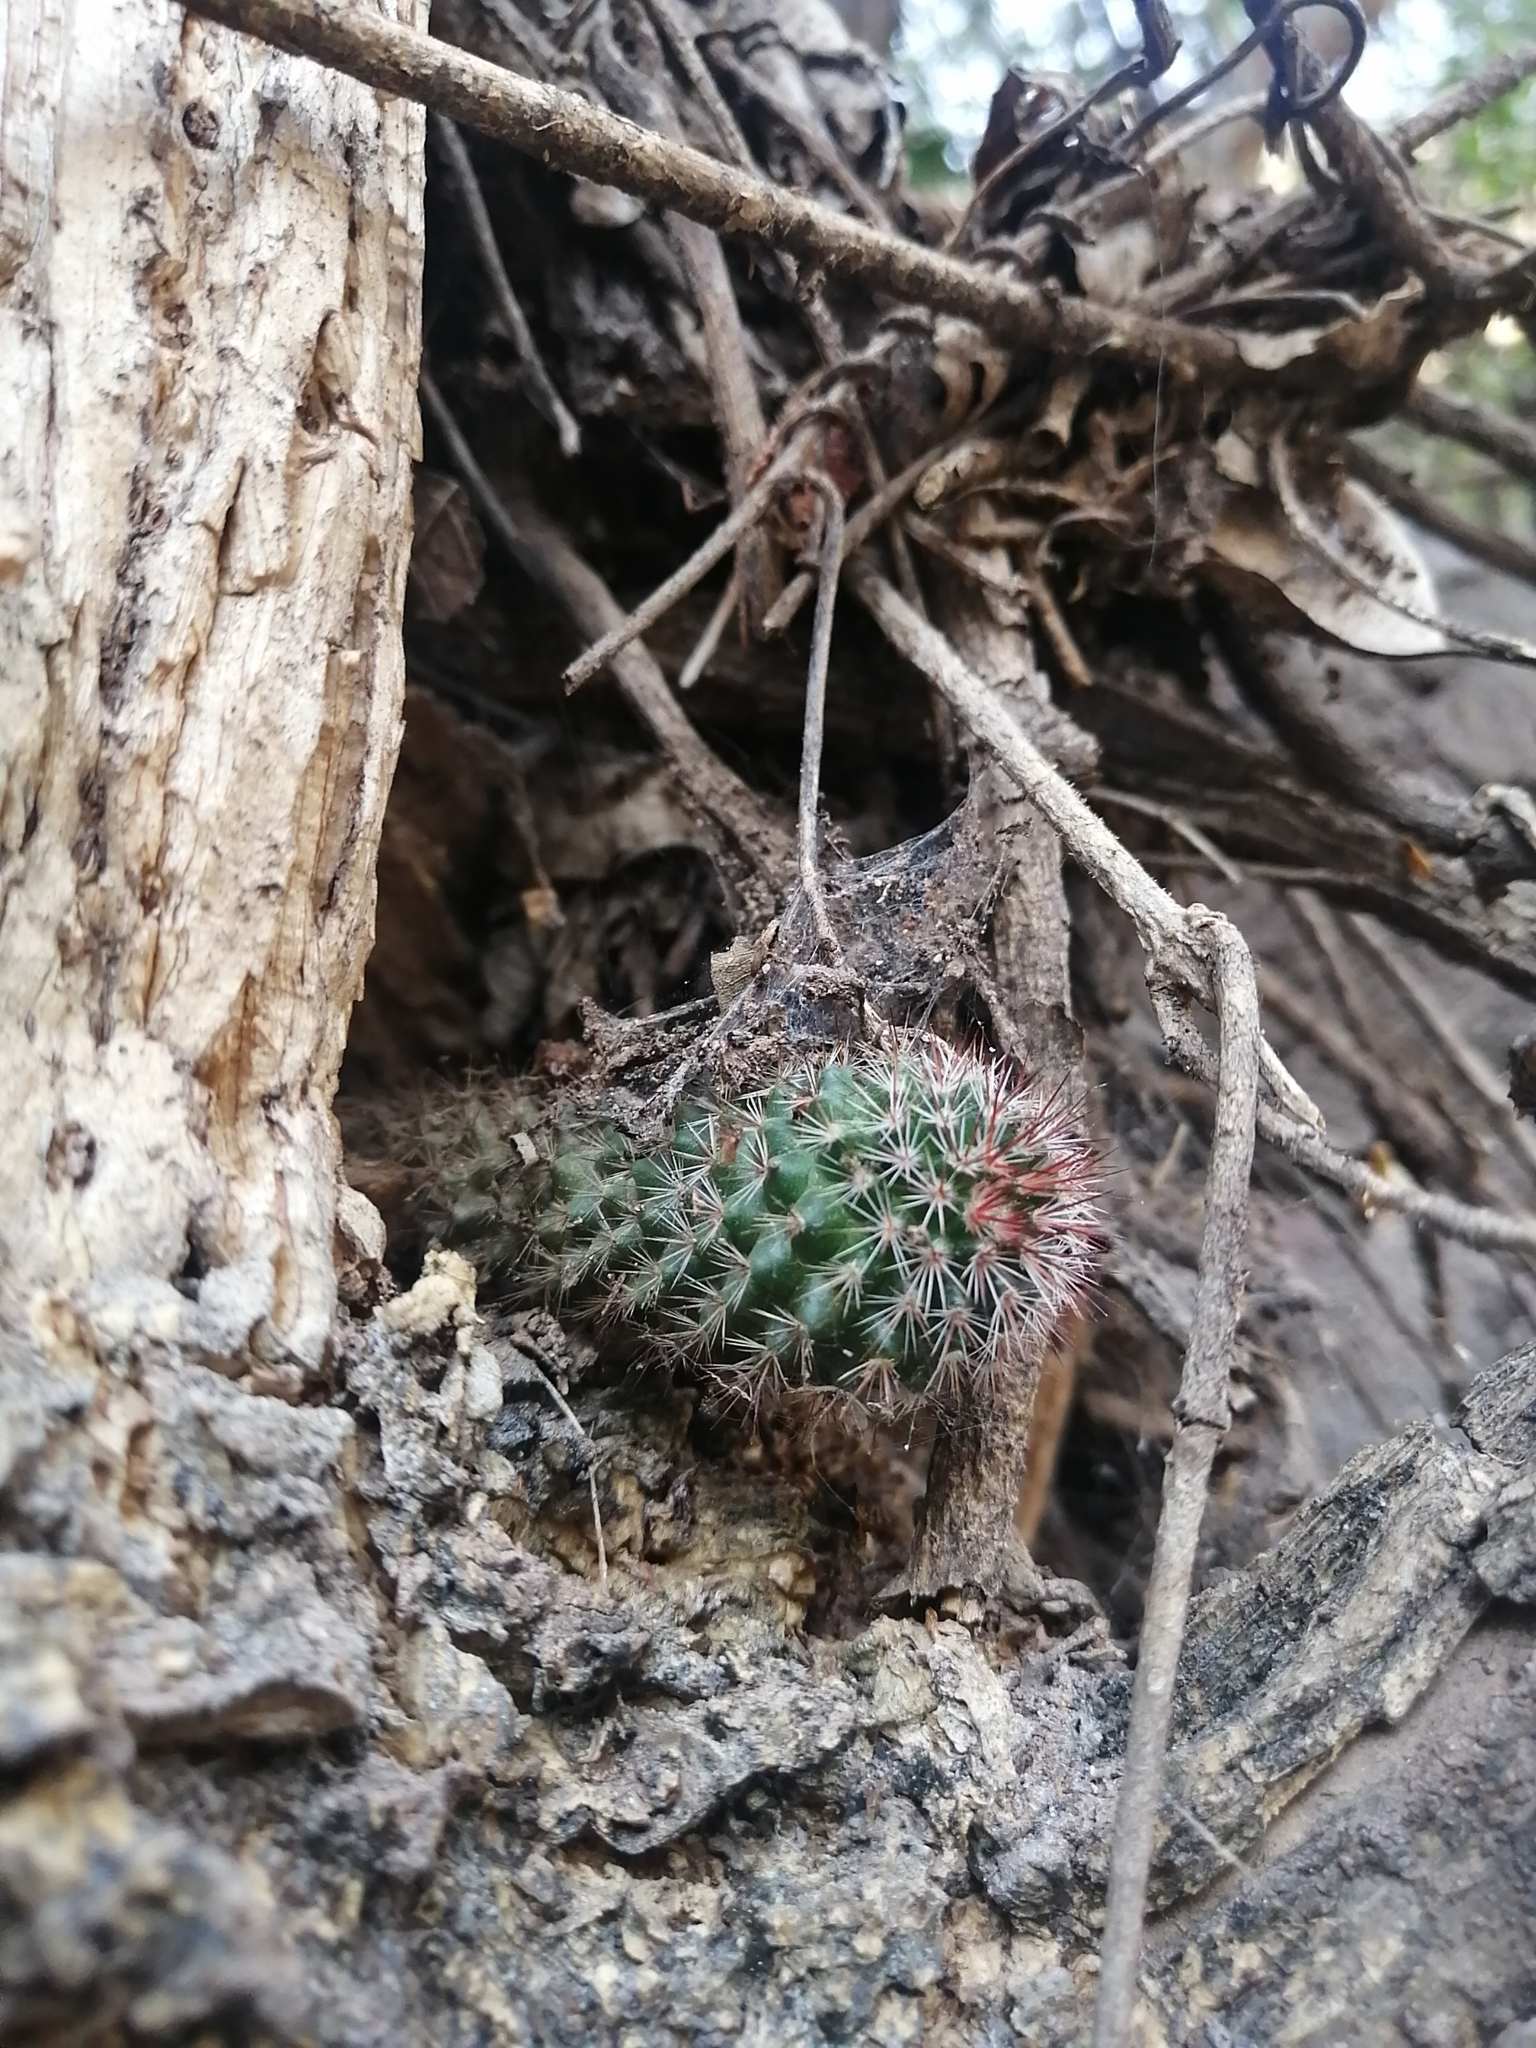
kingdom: Plantae
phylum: Tracheophyta
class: Magnoliopsida
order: Caryophyllales
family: Cactaceae
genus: Mammillaria
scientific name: Mammillaria scrippsiana
